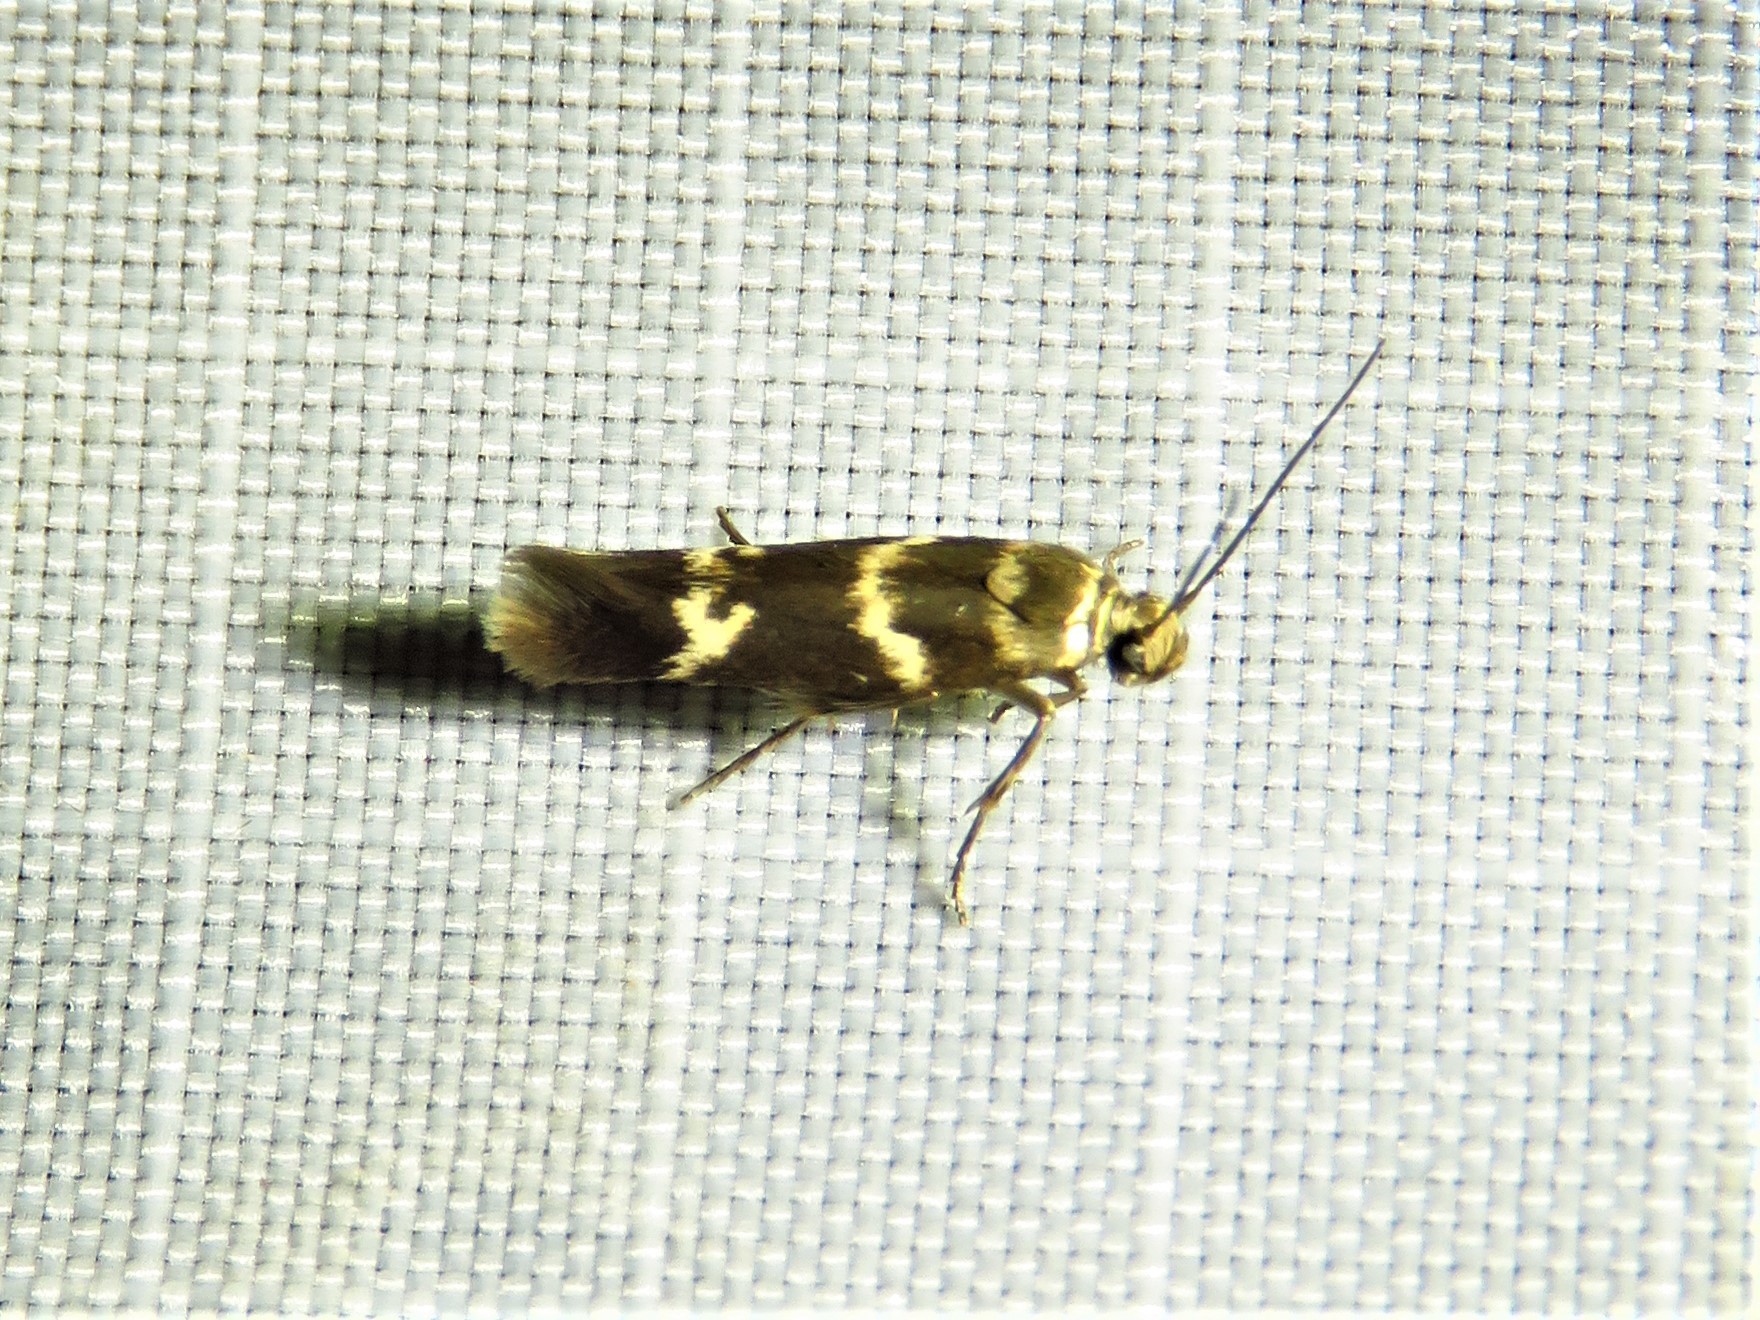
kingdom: Animalia
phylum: Arthropoda
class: Insecta
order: Lepidoptera
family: Scythrididae
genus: Scythris
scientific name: Scythris trivinctella
